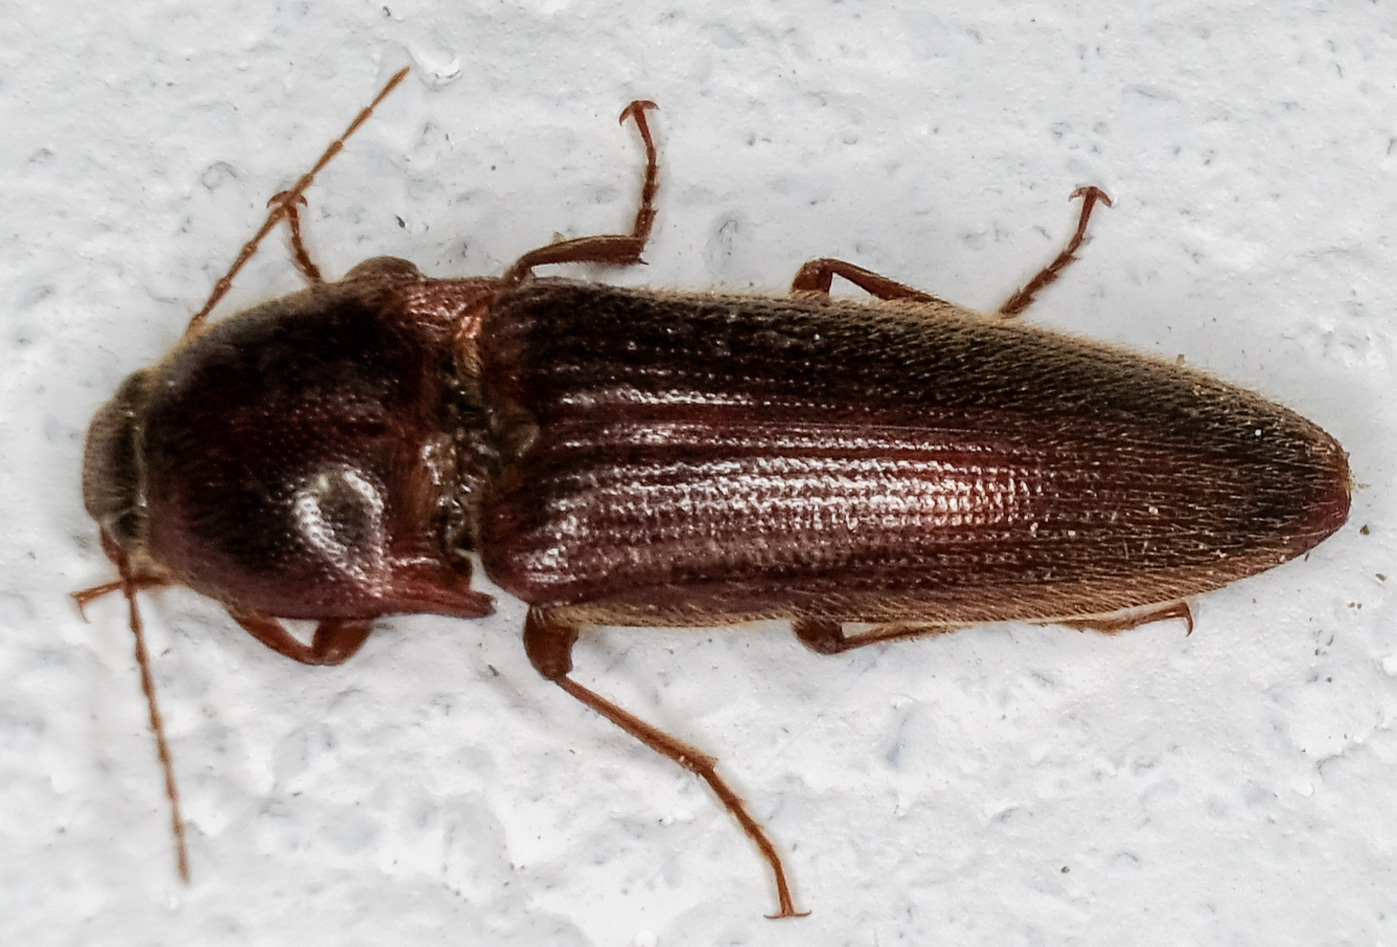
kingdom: Animalia
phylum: Arthropoda
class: Insecta
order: Coleoptera
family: Elateridae
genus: Melanotus
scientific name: Melanotus
